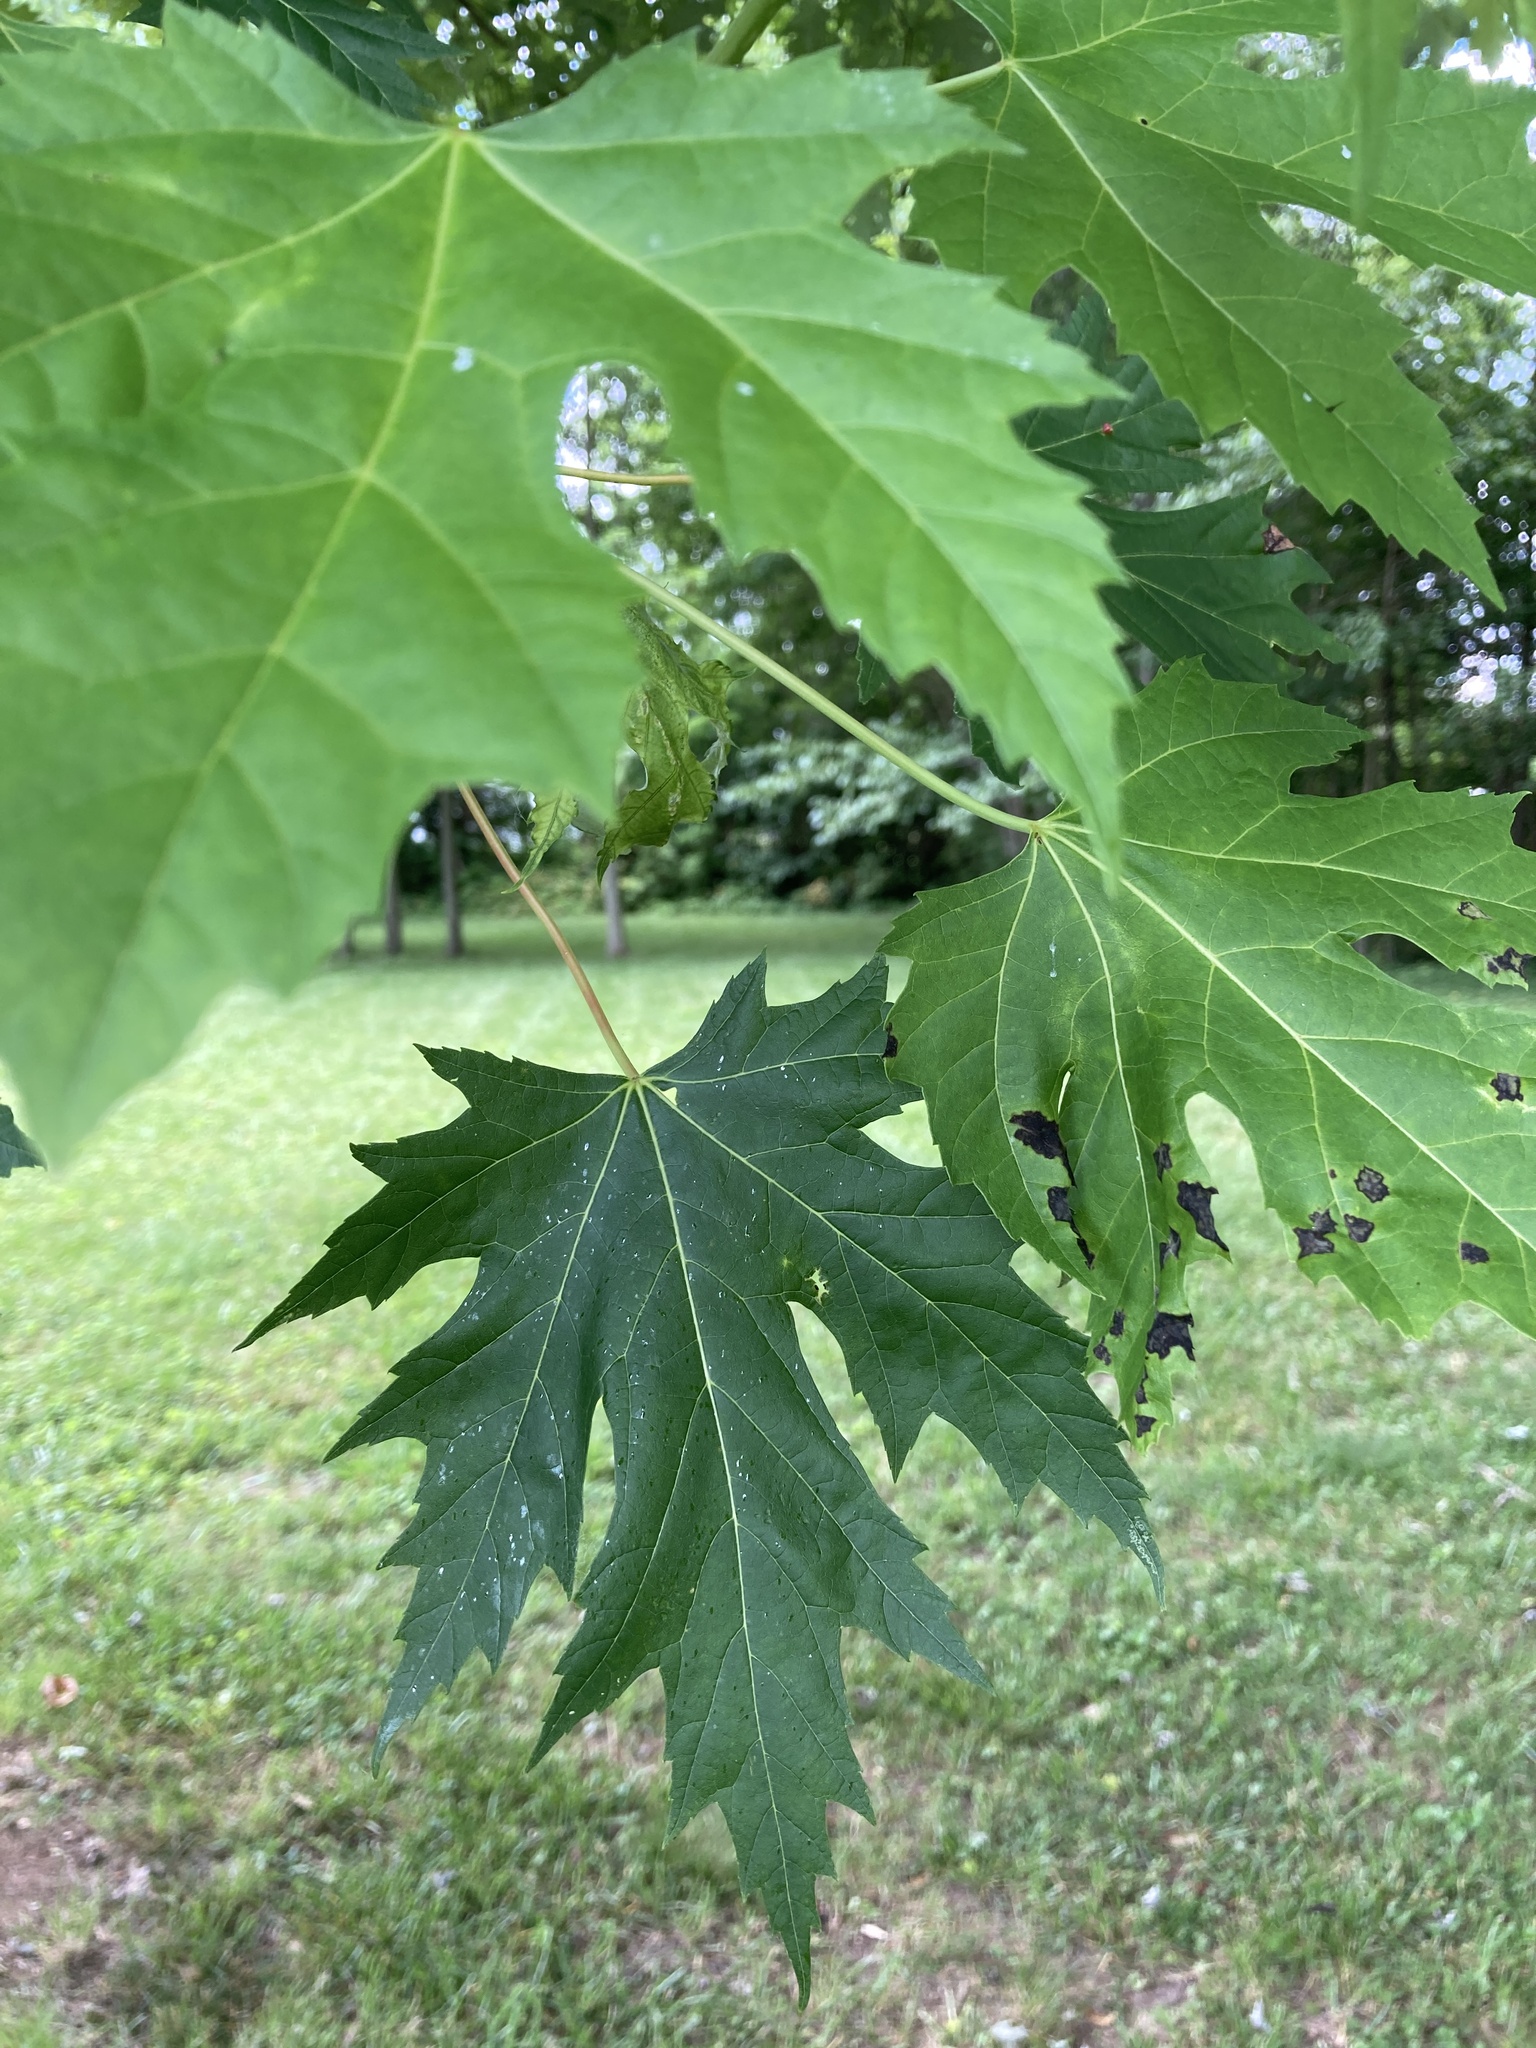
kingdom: Plantae
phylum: Tracheophyta
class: Magnoliopsida
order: Sapindales
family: Sapindaceae
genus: Acer
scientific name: Acer saccharinum
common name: Silver maple
